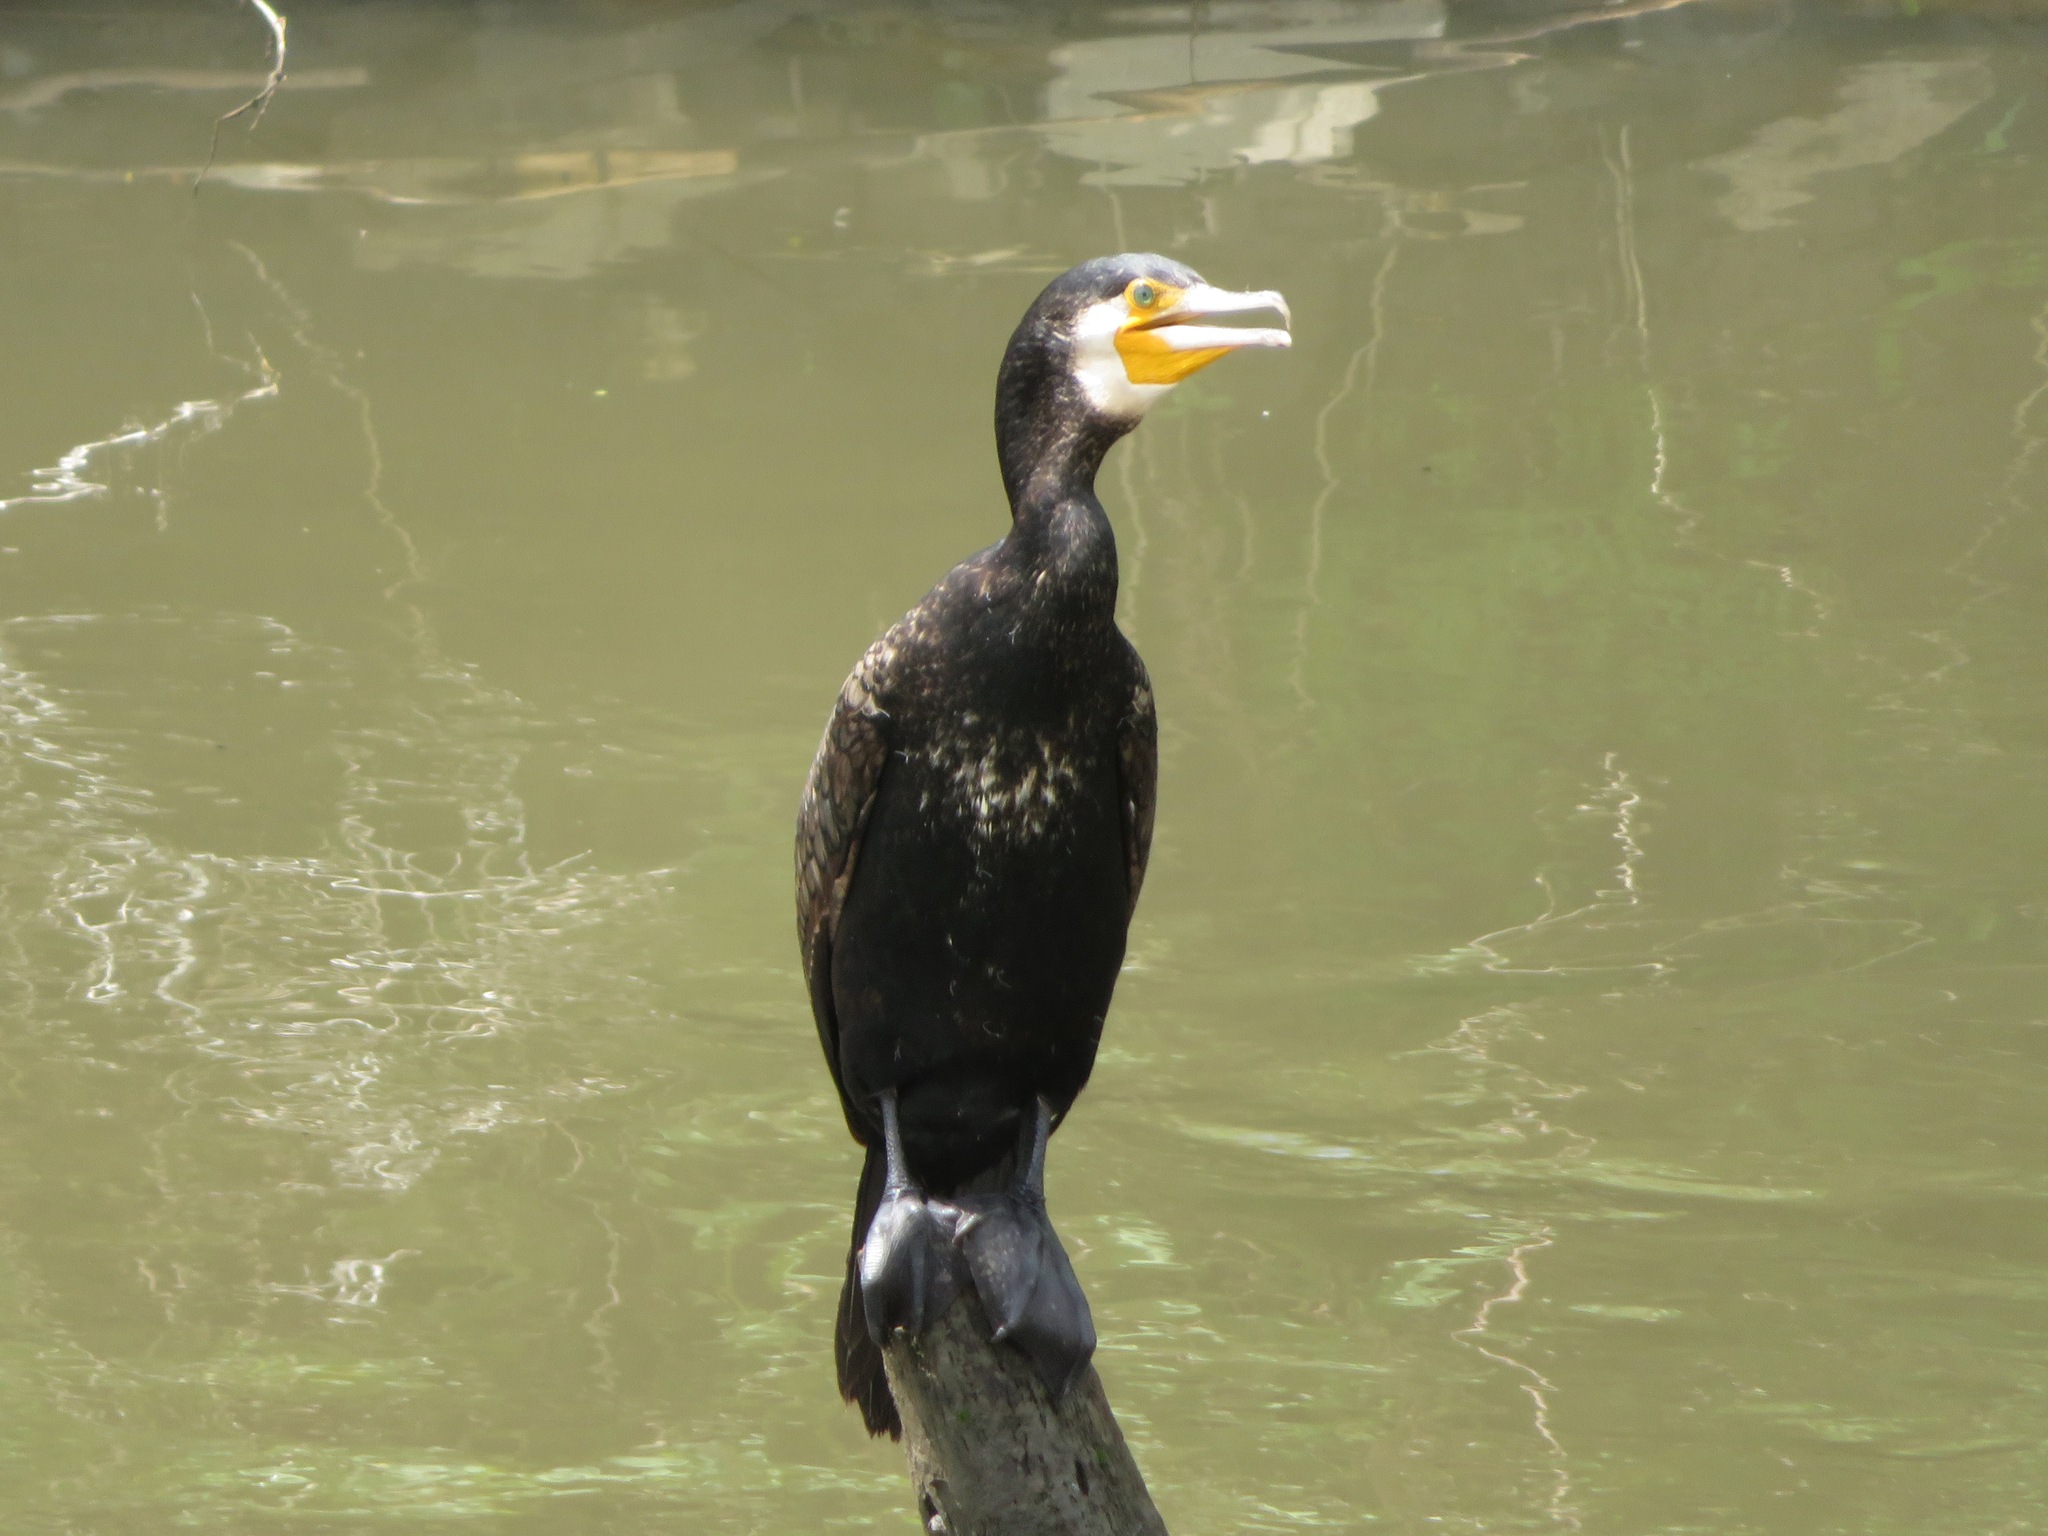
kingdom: Animalia
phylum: Chordata
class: Aves
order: Suliformes
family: Phalacrocoracidae
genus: Phalacrocorax
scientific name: Phalacrocorax carbo
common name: Great cormorant
